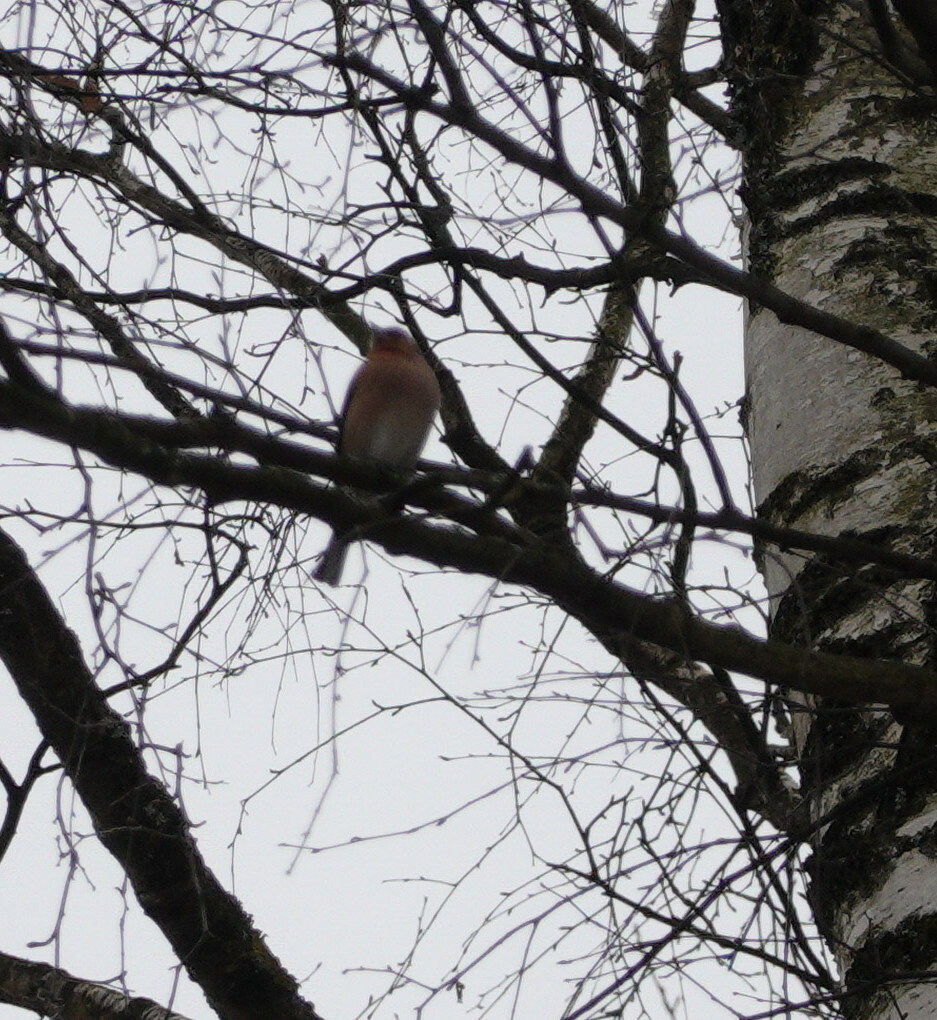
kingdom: Animalia
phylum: Chordata
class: Aves
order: Passeriformes
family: Fringillidae
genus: Fringilla
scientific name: Fringilla coelebs
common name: Common chaffinch
